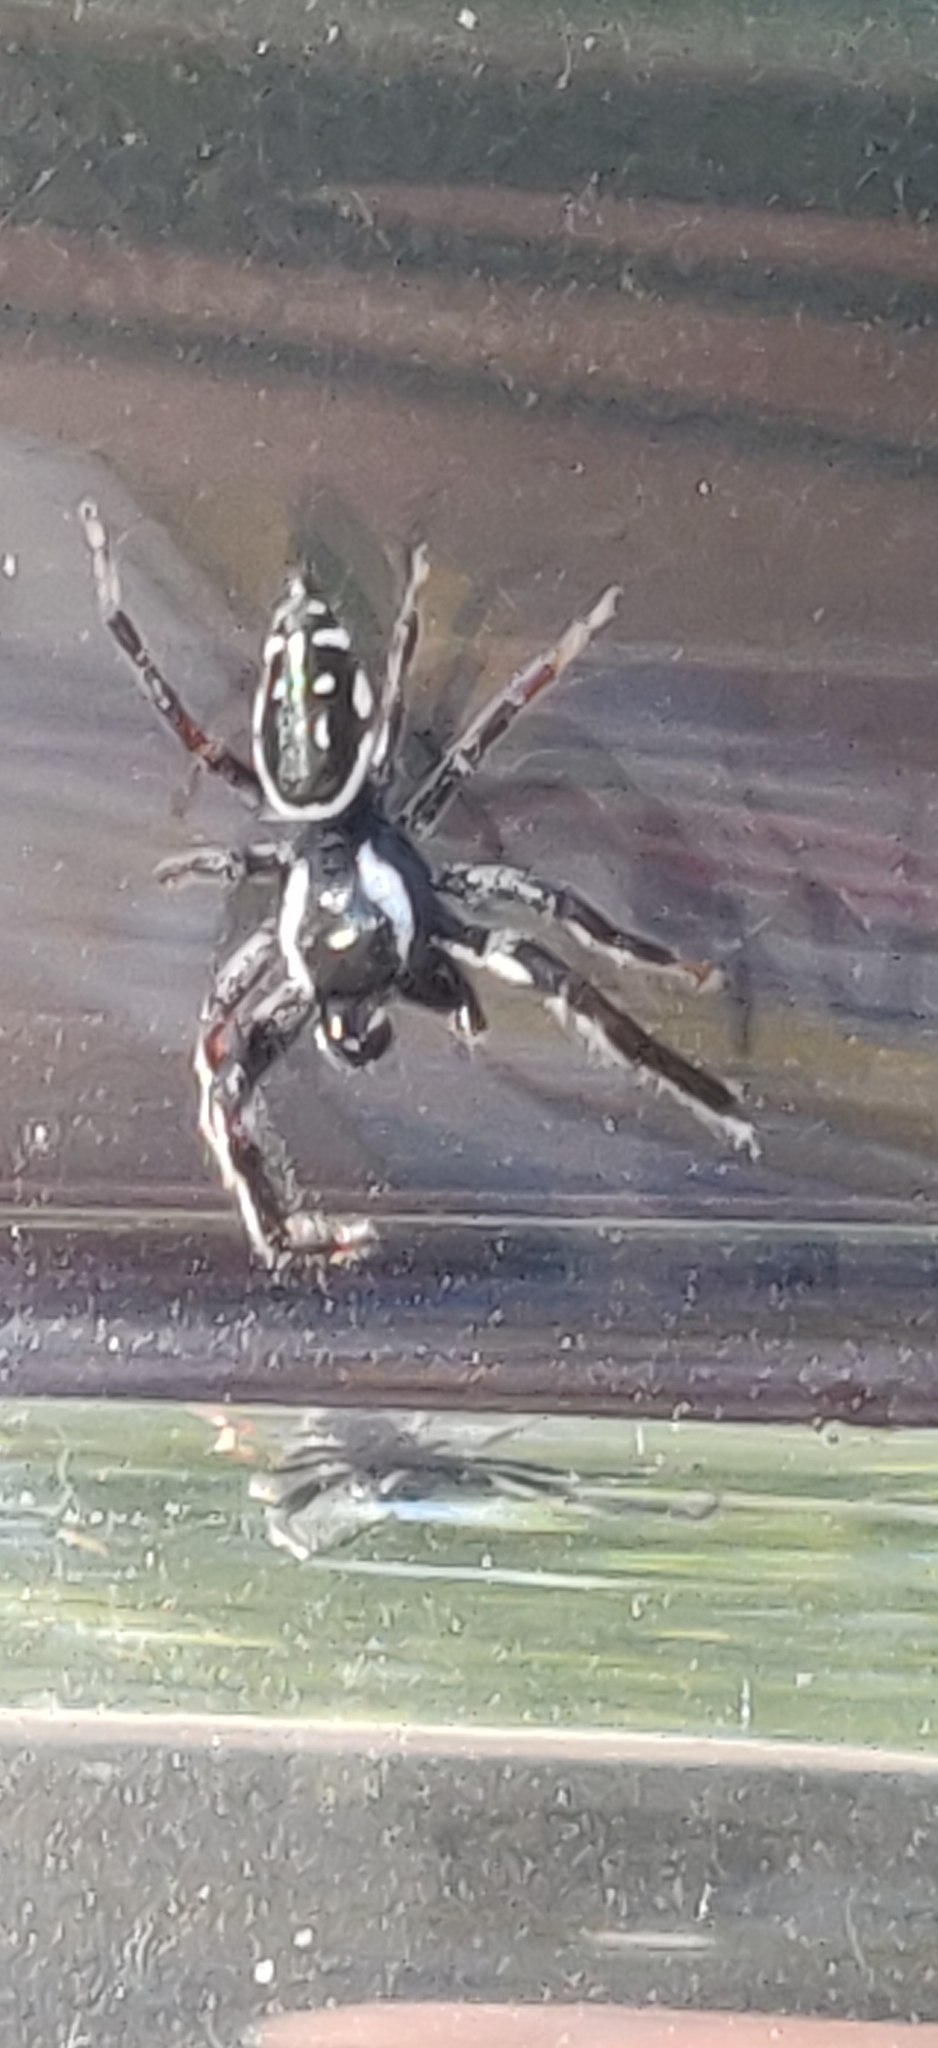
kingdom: Animalia
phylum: Arthropoda
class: Arachnida
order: Araneae
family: Salticidae
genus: Paraphidippus
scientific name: Paraphidippus aurantius
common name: Jumping spiders
